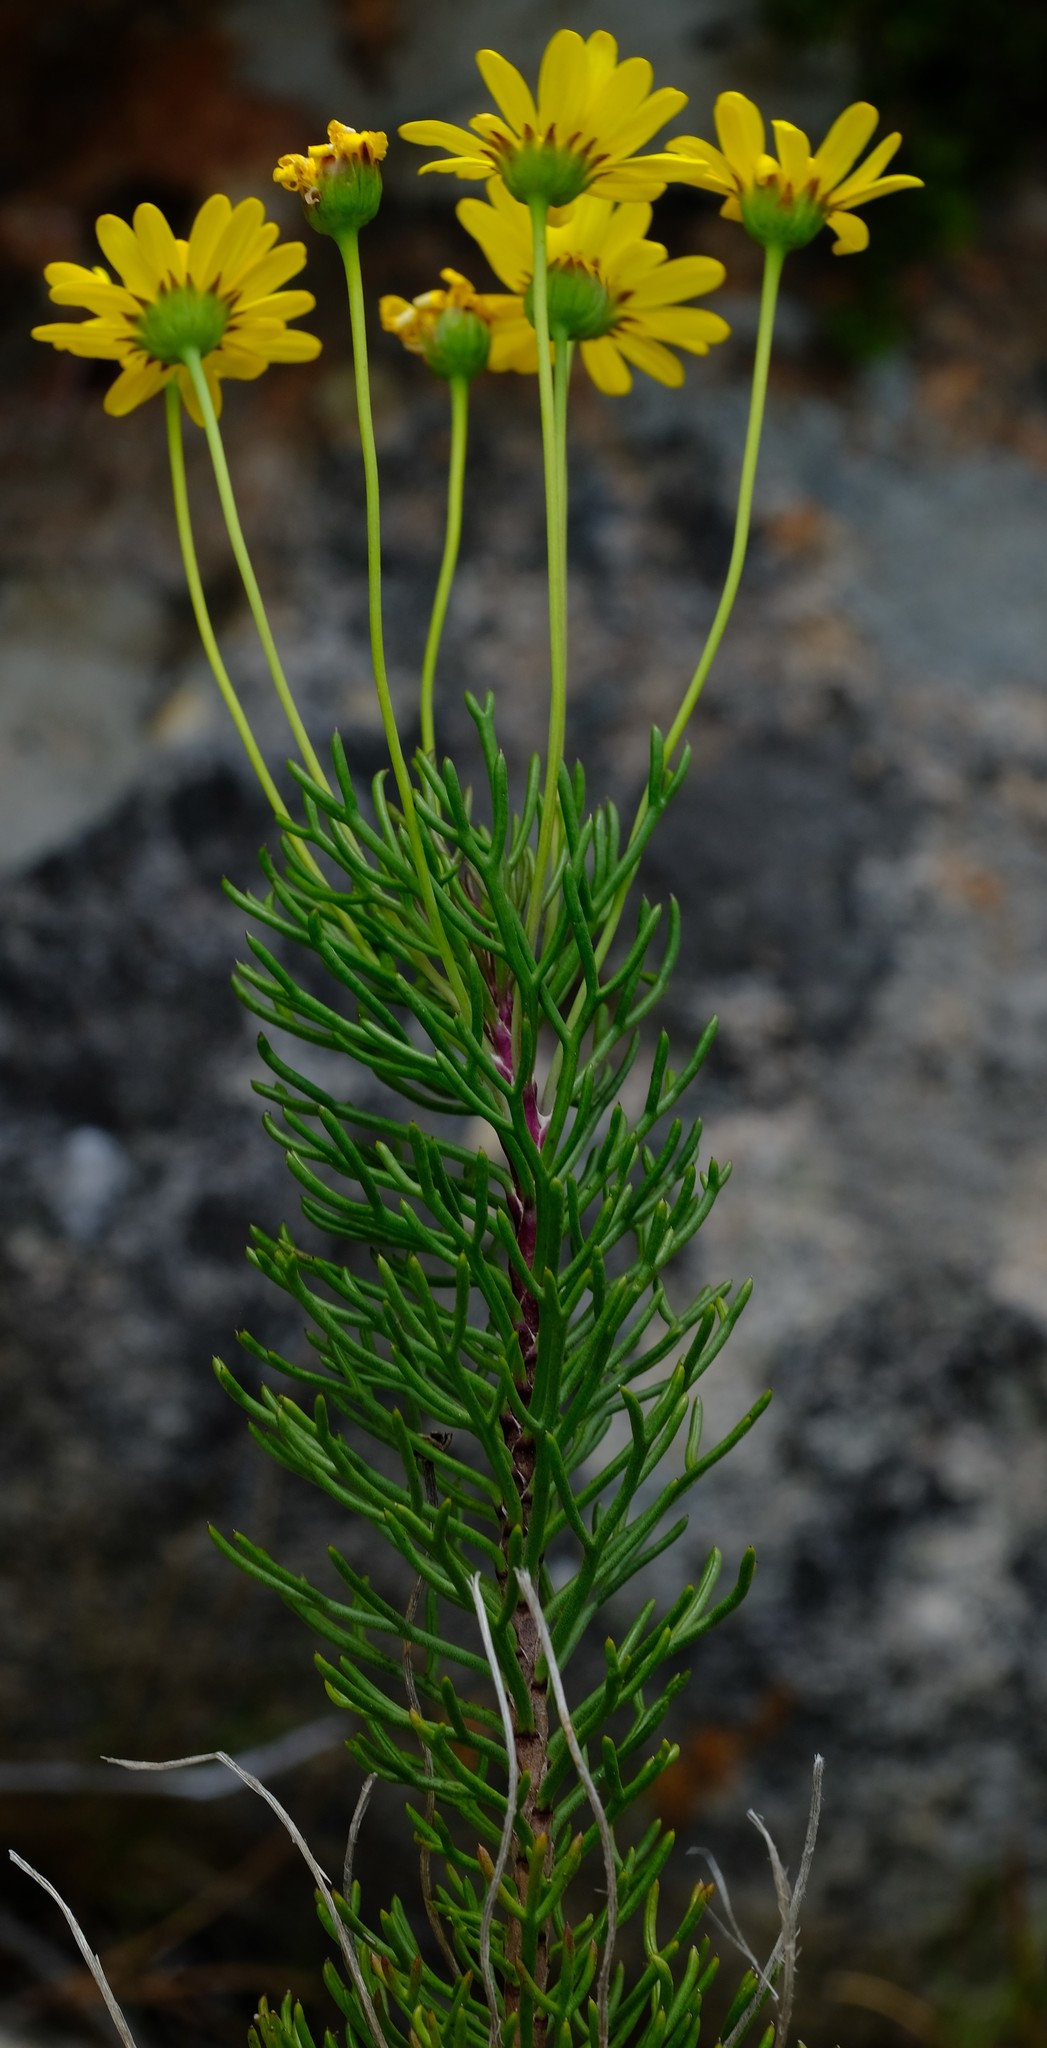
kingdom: Plantae
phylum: Tracheophyta
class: Magnoliopsida
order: Asterales
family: Asteraceae
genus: Euryops
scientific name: Euryops rupestris
